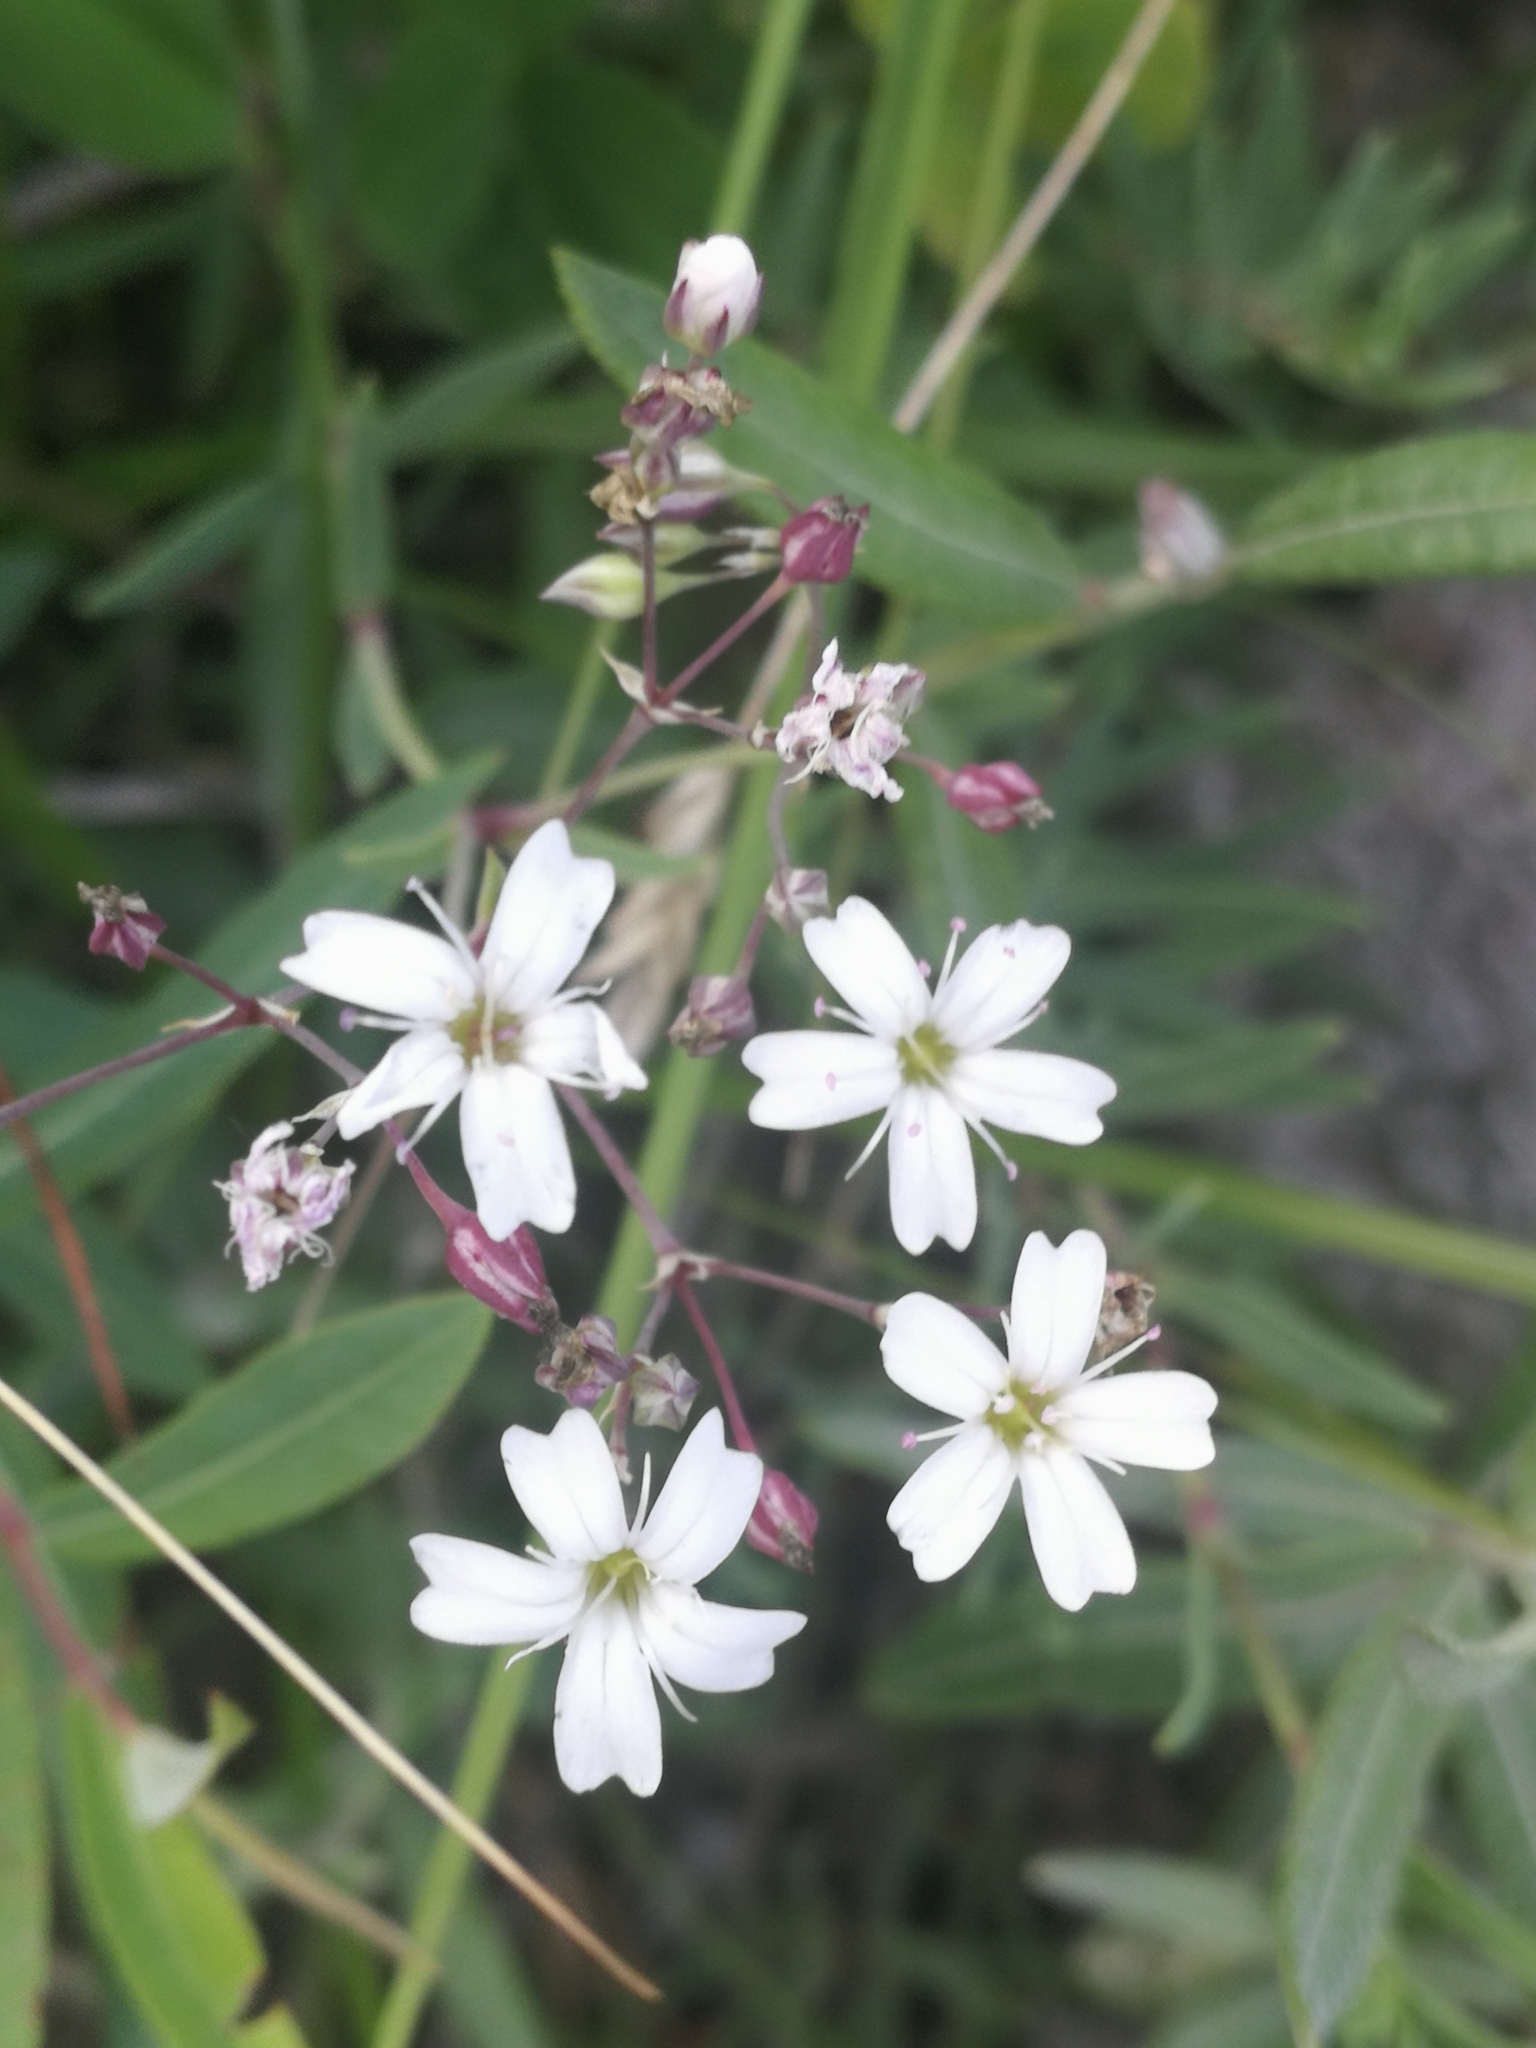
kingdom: Plantae
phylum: Tracheophyta
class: Magnoliopsida
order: Caryophyllales
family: Caryophyllaceae
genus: Gypsophila
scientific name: Gypsophila repens
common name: Creeping baby's-breath
